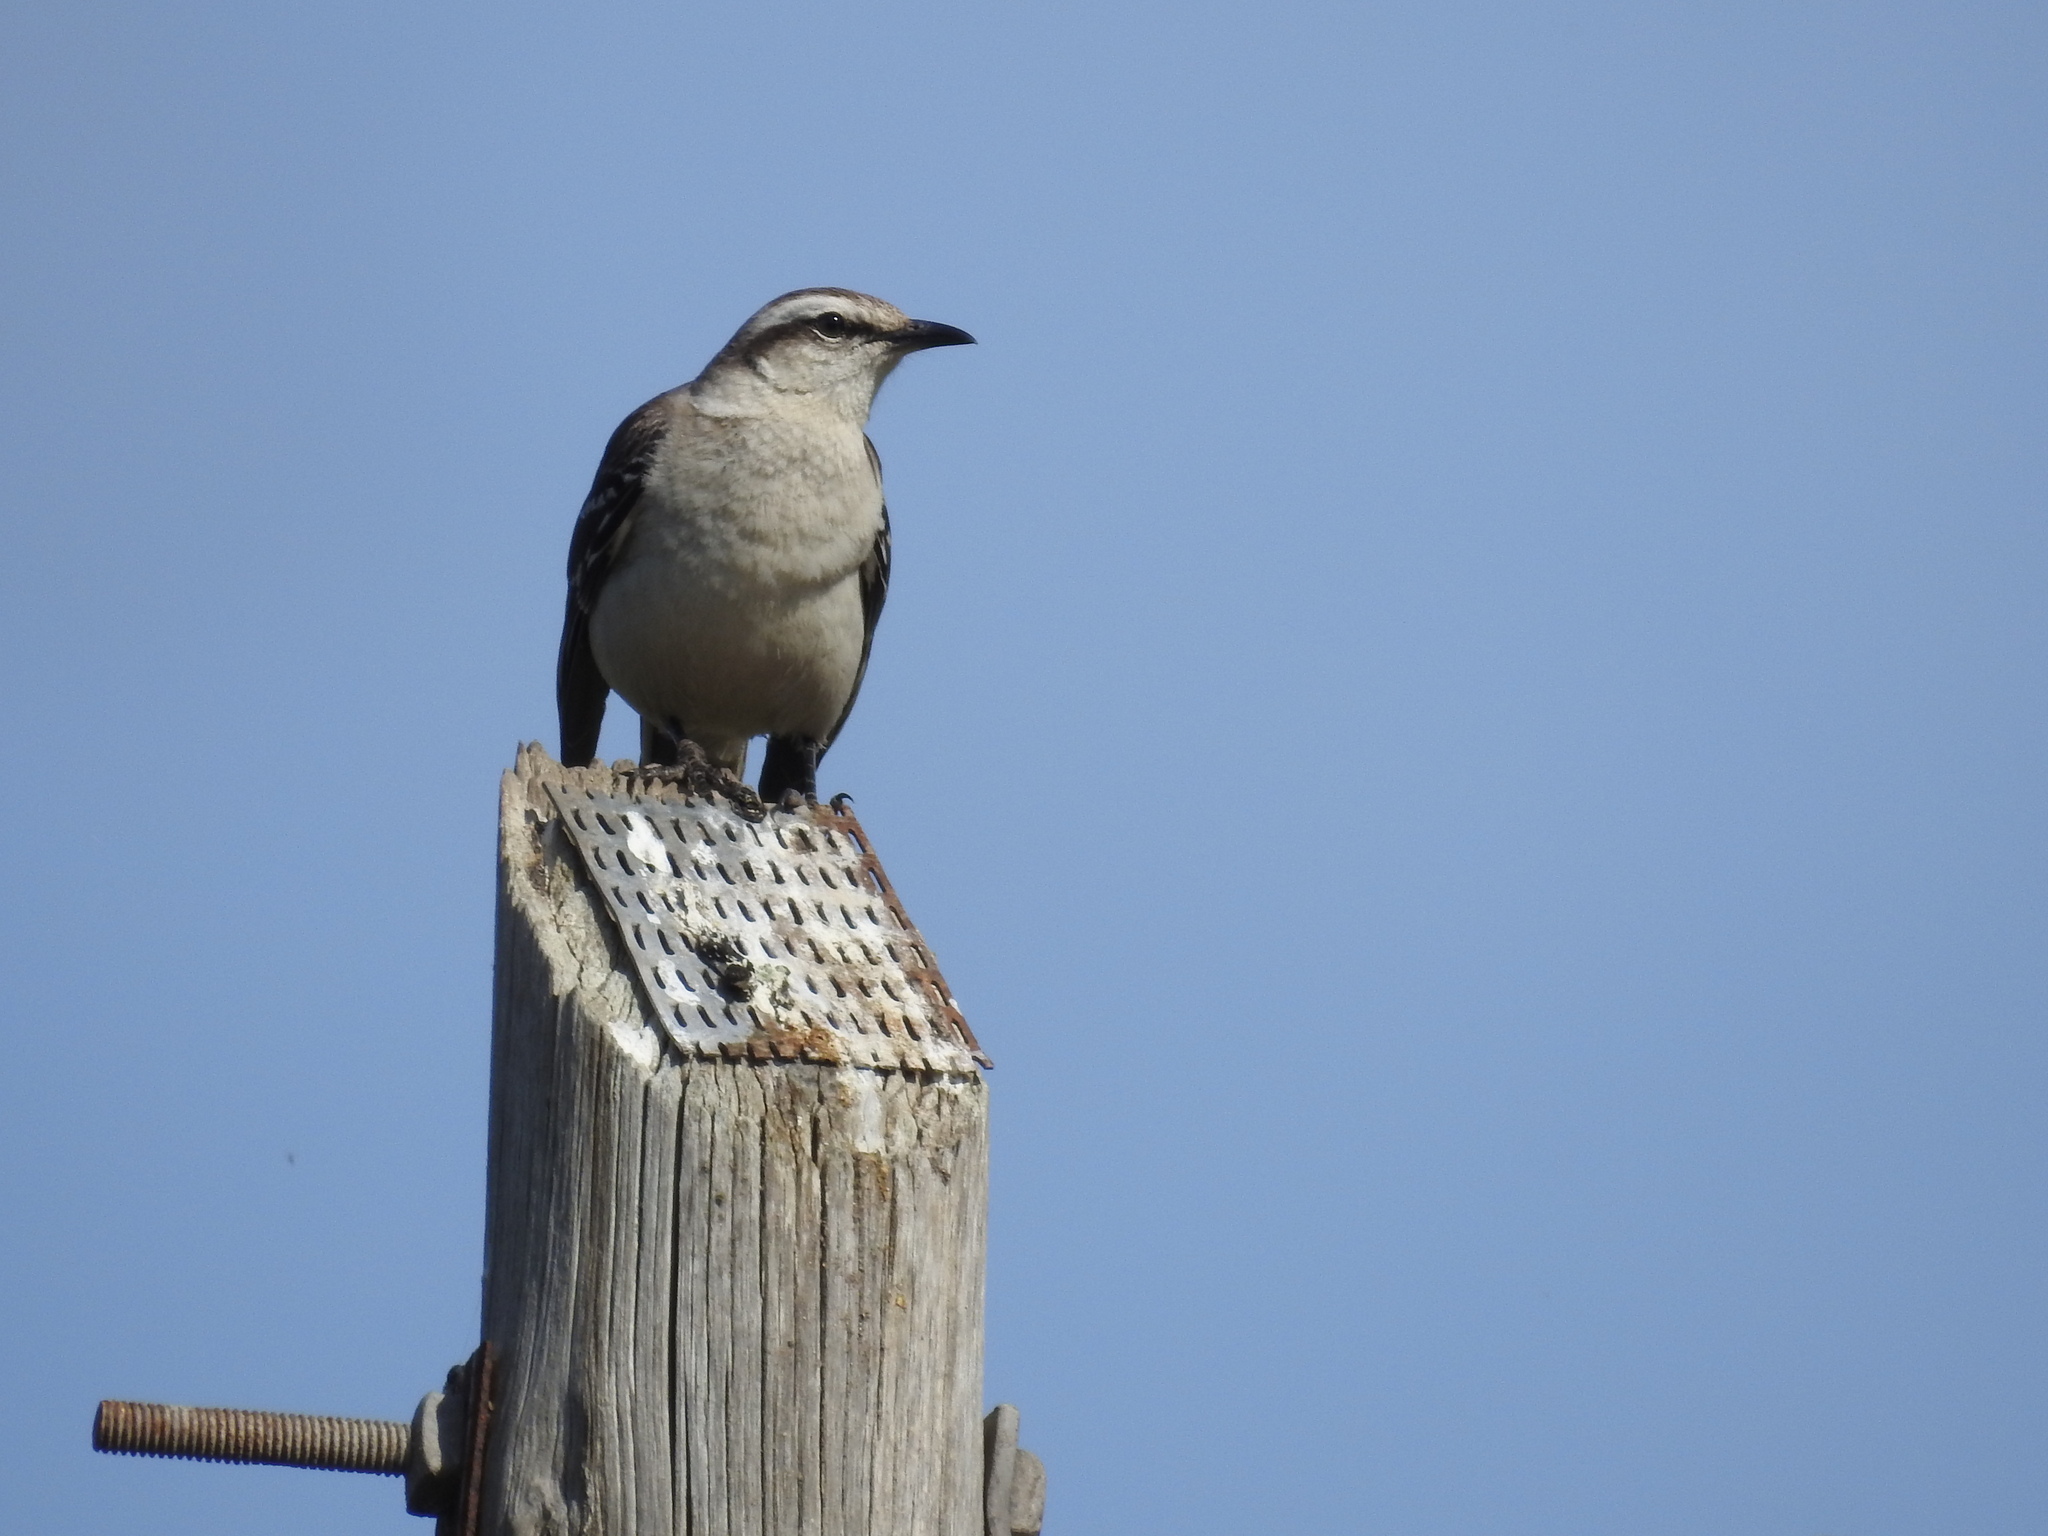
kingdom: Animalia
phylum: Chordata
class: Aves
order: Passeriformes
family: Mimidae
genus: Mimus
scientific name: Mimus saturninus
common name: Chalk-browed mockingbird
